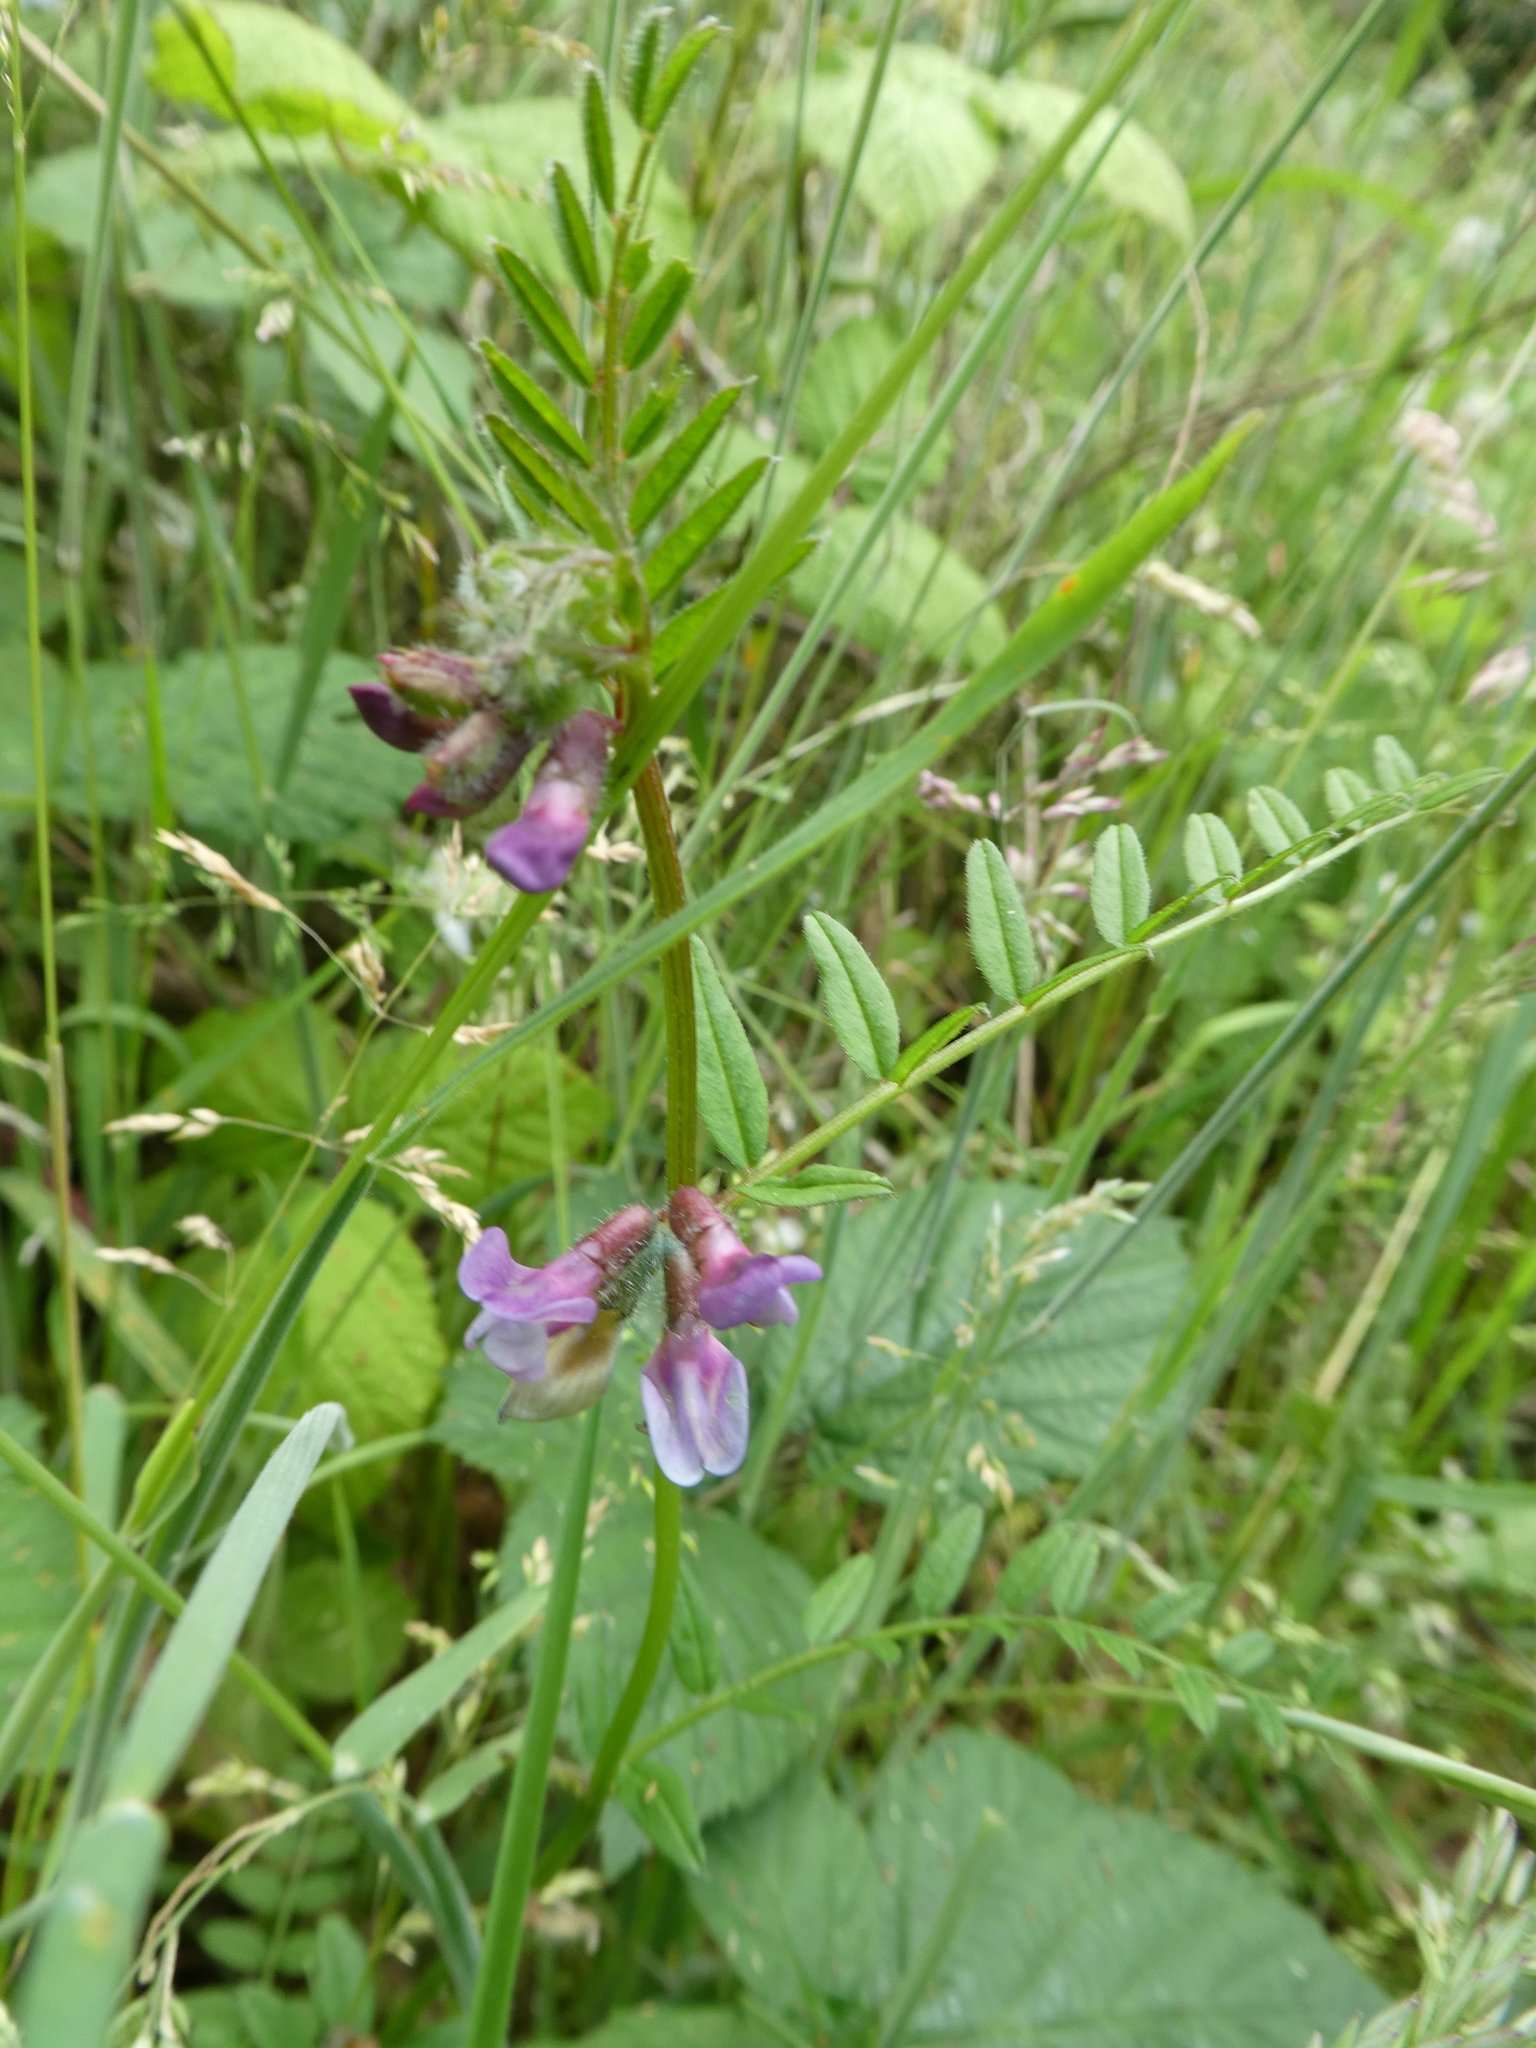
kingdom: Plantae
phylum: Tracheophyta
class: Magnoliopsida
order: Fabales
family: Fabaceae
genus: Vicia
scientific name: Vicia sepium
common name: Bush vetch
